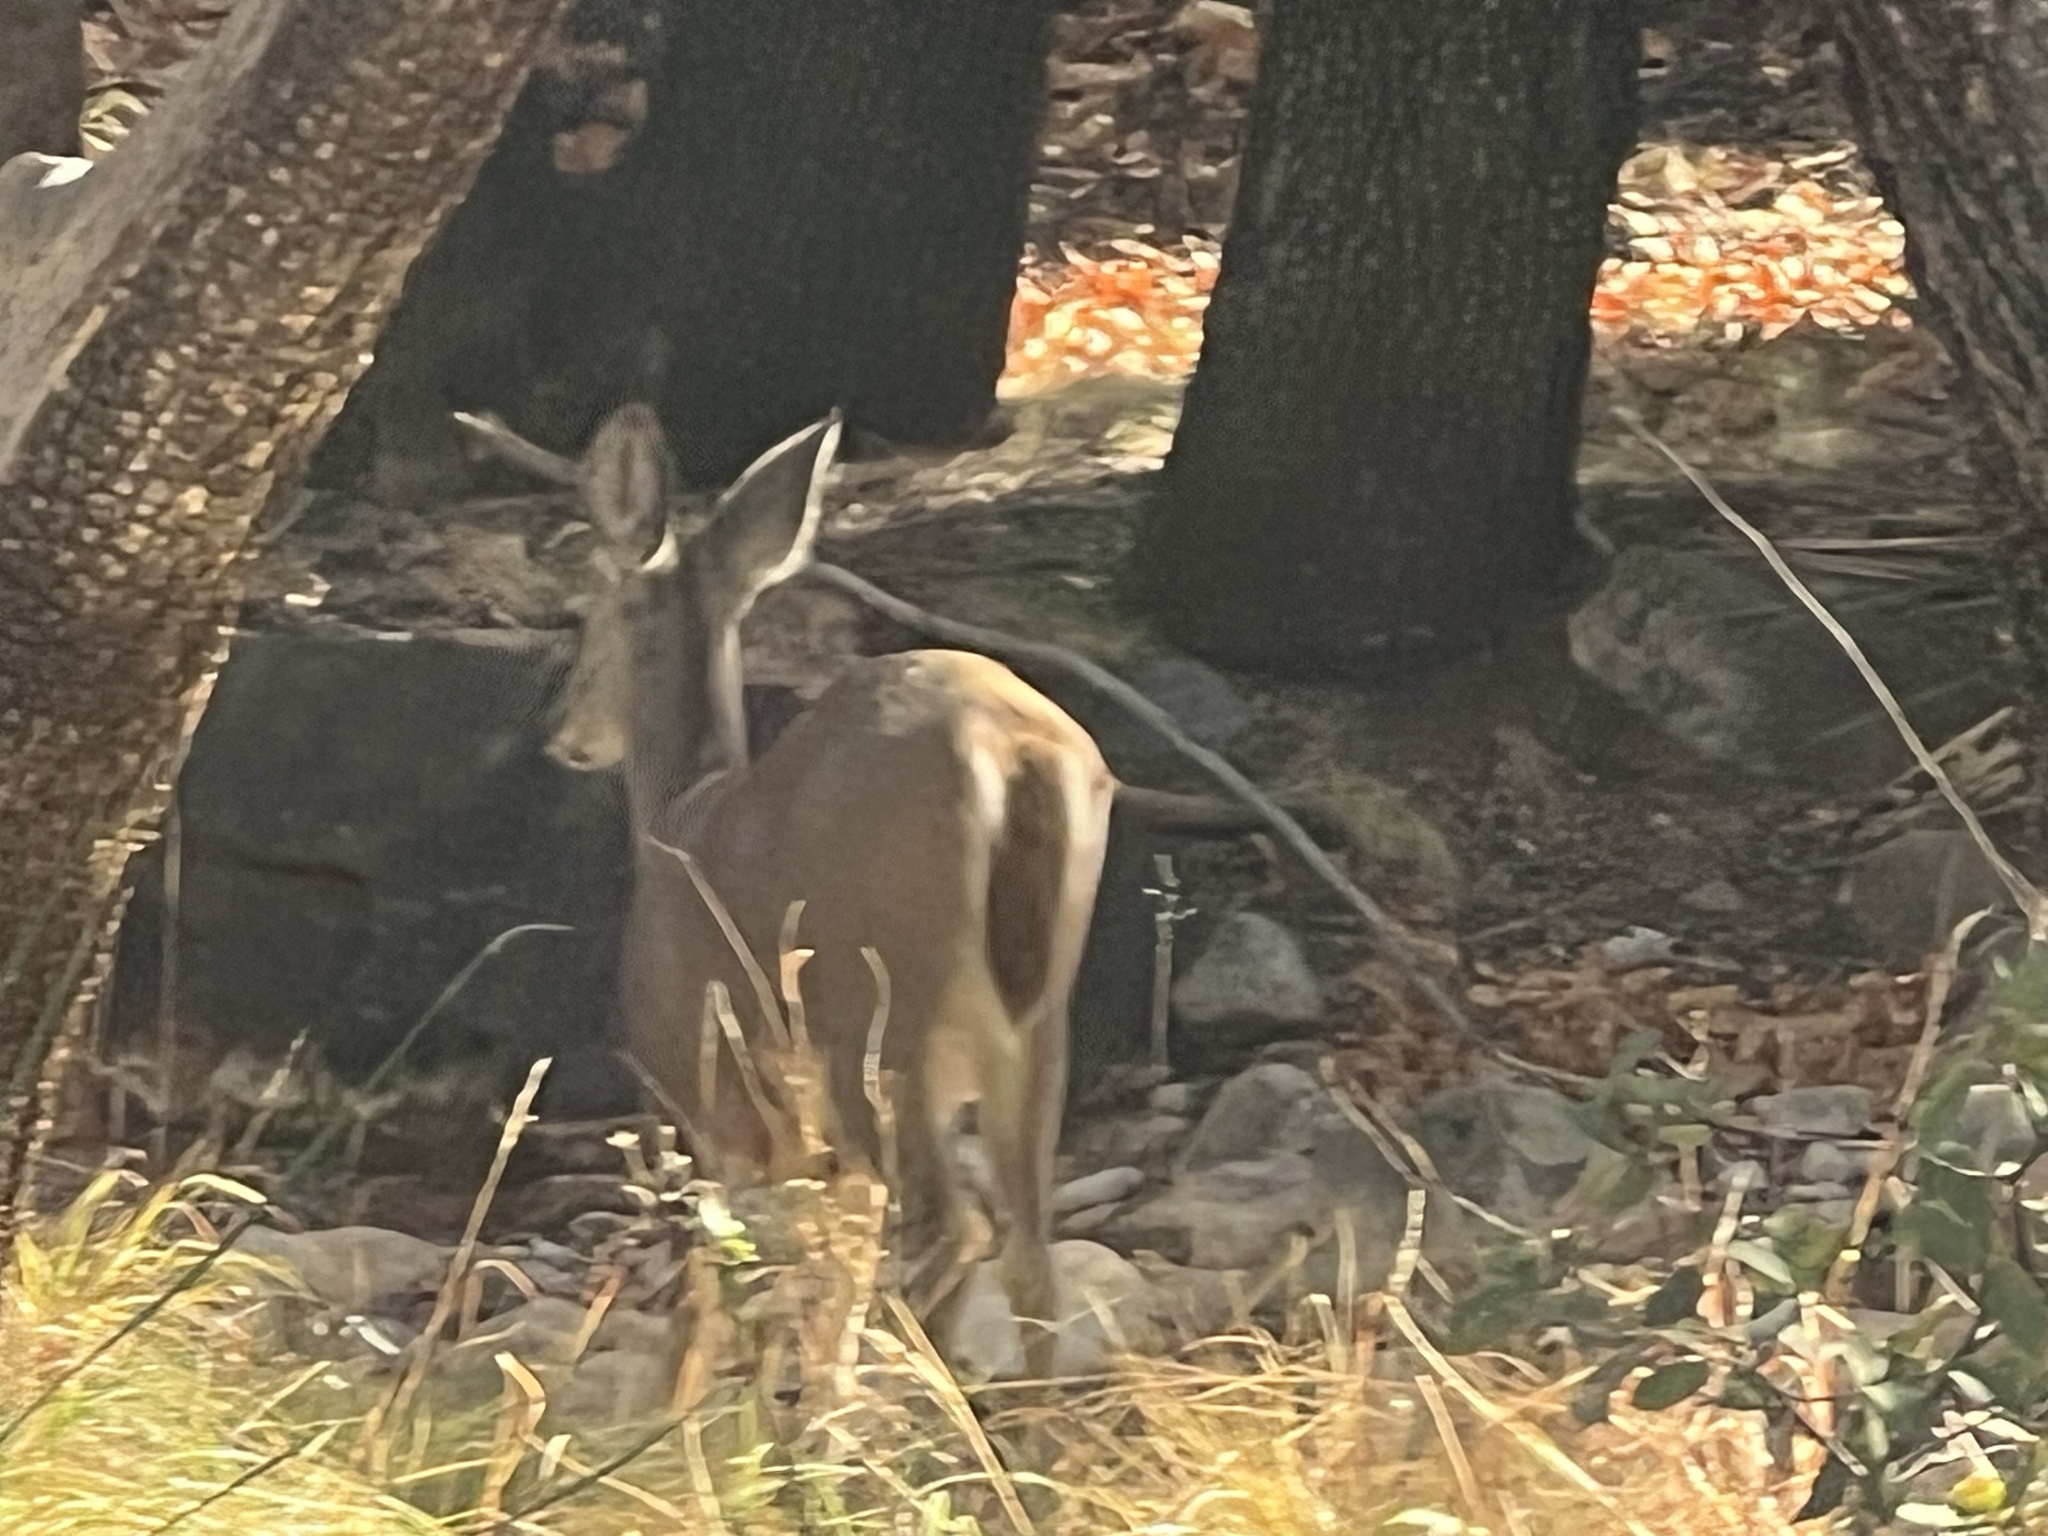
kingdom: Animalia
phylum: Chordata
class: Mammalia
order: Artiodactyla
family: Cervidae
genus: Odocoileus
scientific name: Odocoileus virginianus
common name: White-tailed deer
